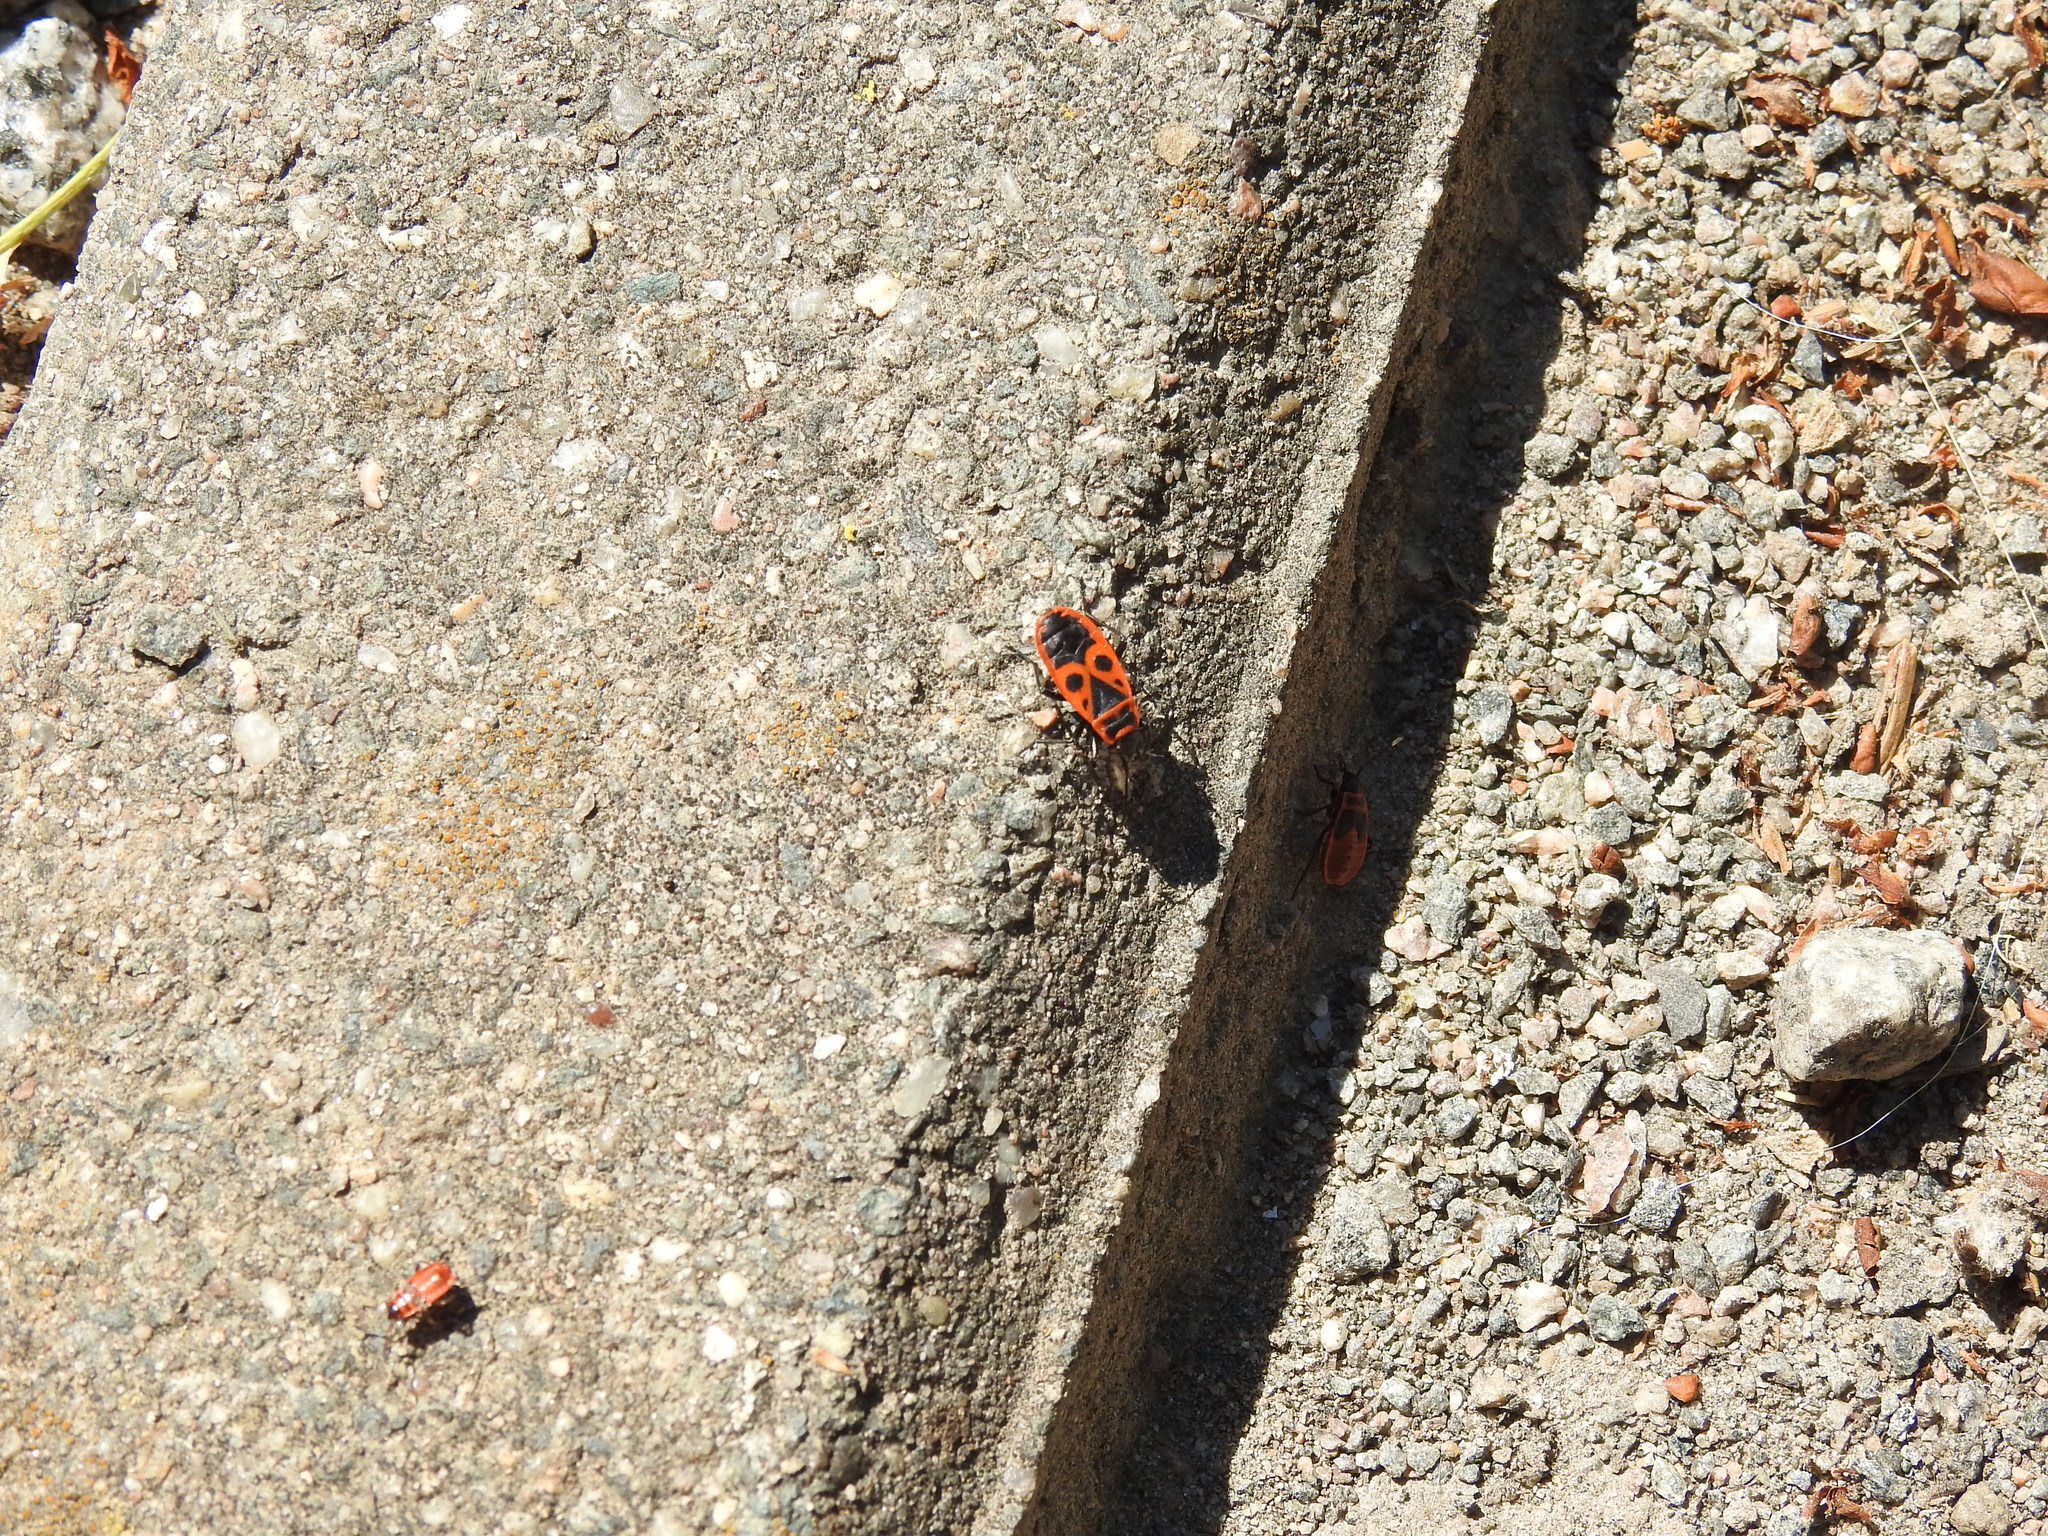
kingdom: Animalia
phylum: Arthropoda
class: Insecta
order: Hemiptera
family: Pyrrhocoridae
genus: Pyrrhocoris
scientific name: Pyrrhocoris apterus
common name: Firebug
